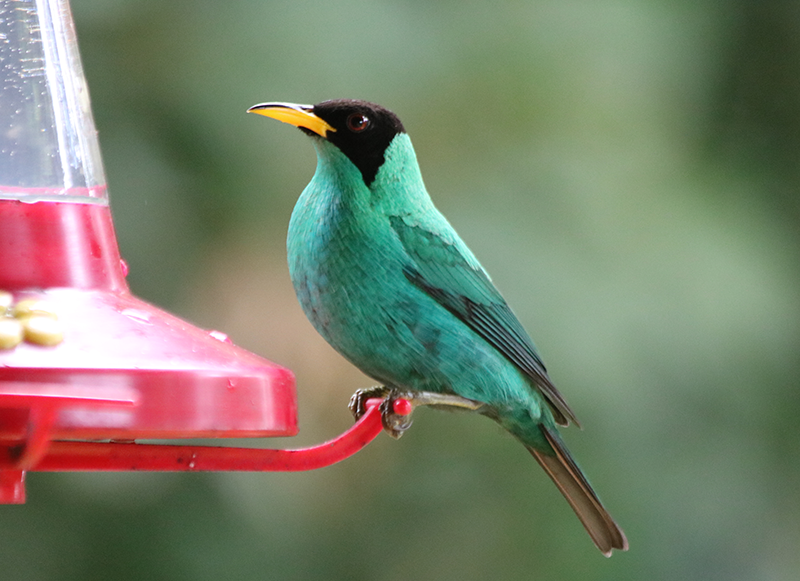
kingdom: Animalia
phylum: Chordata
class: Aves
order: Passeriformes
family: Thraupidae
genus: Chlorophanes
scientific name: Chlorophanes spiza
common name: Green honeycreeper
